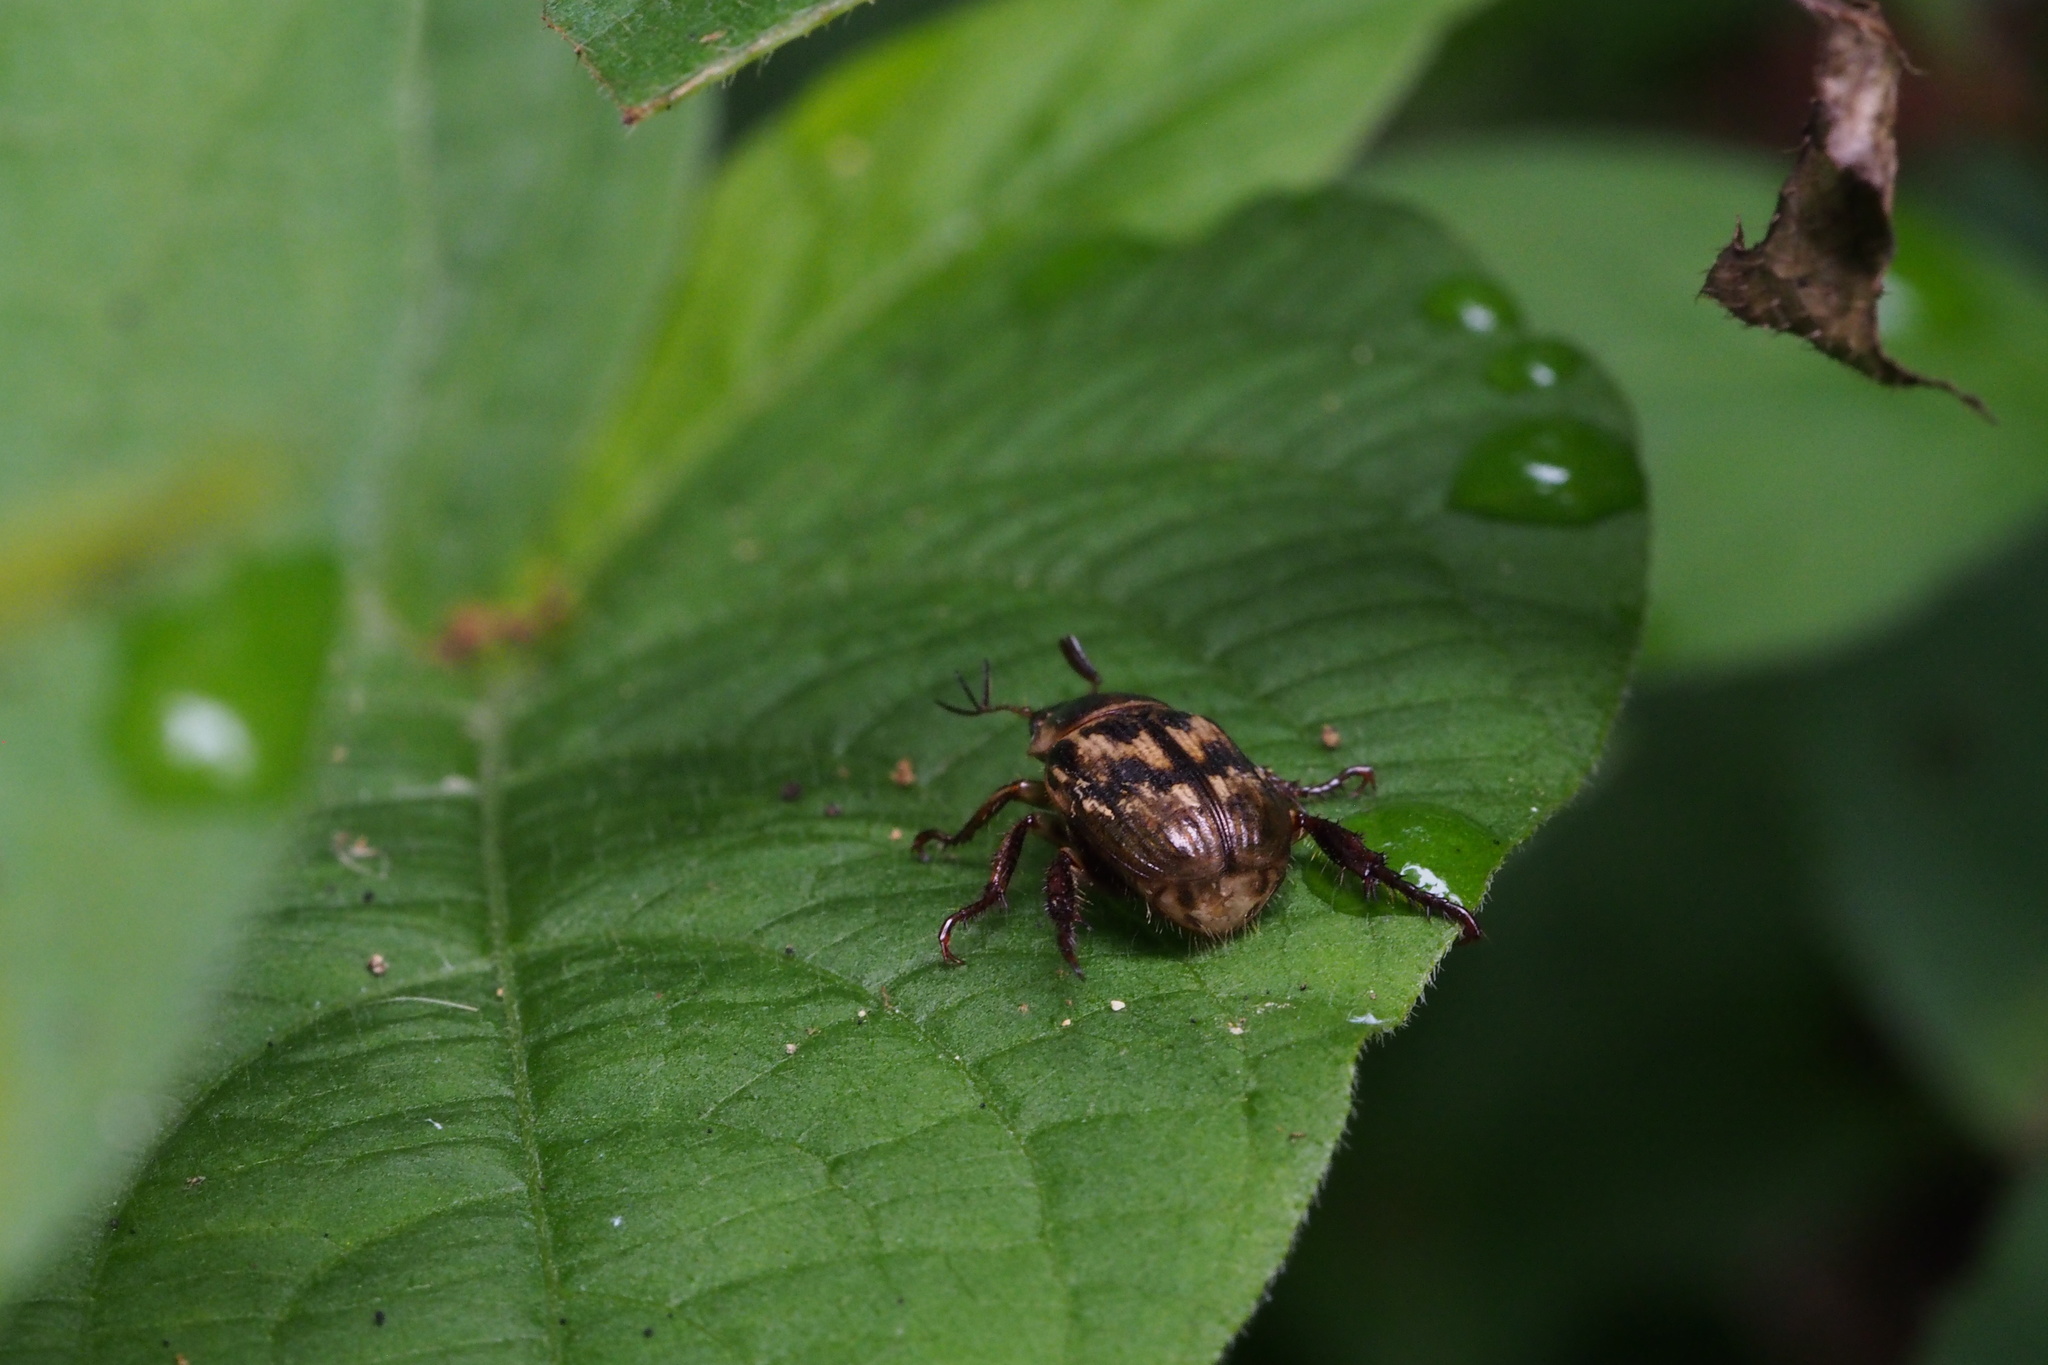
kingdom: Animalia
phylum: Arthropoda
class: Insecta
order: Coleoptera
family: Scarabaeidae
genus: Exomala
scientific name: Exomala orientalis
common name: Oriental beetle
